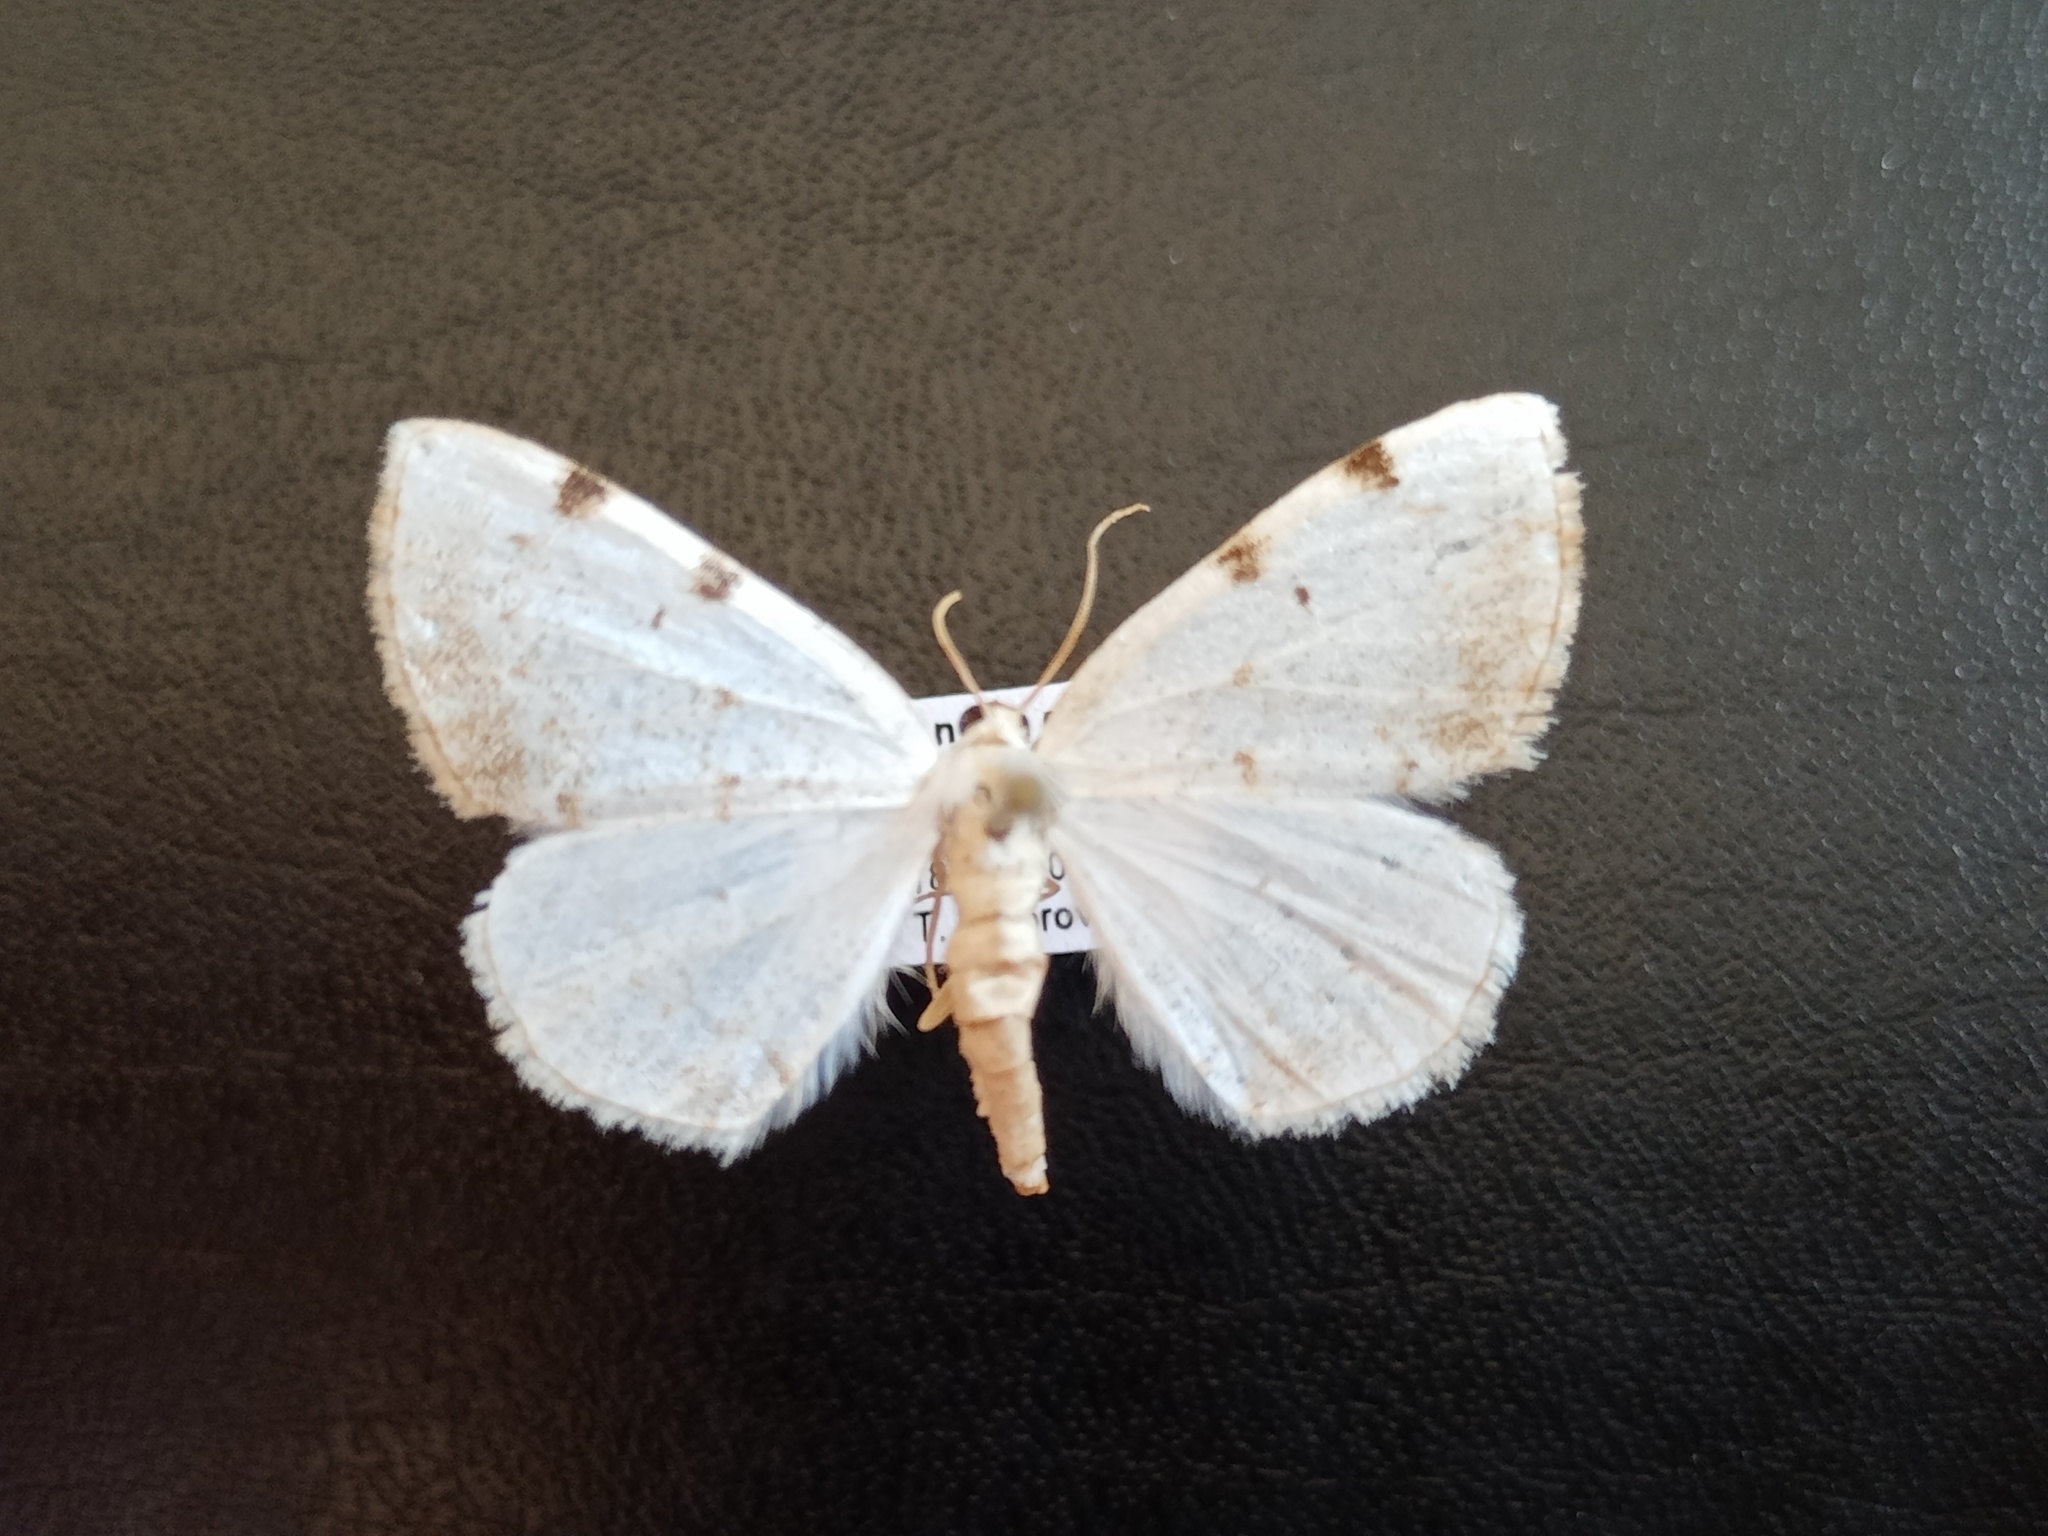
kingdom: Animalia
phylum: Arthropoda
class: Insecta
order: Lepidoptera
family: Geometridae
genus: Lomographa
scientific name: Lomographa bimaculata
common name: White-pinion spotted
